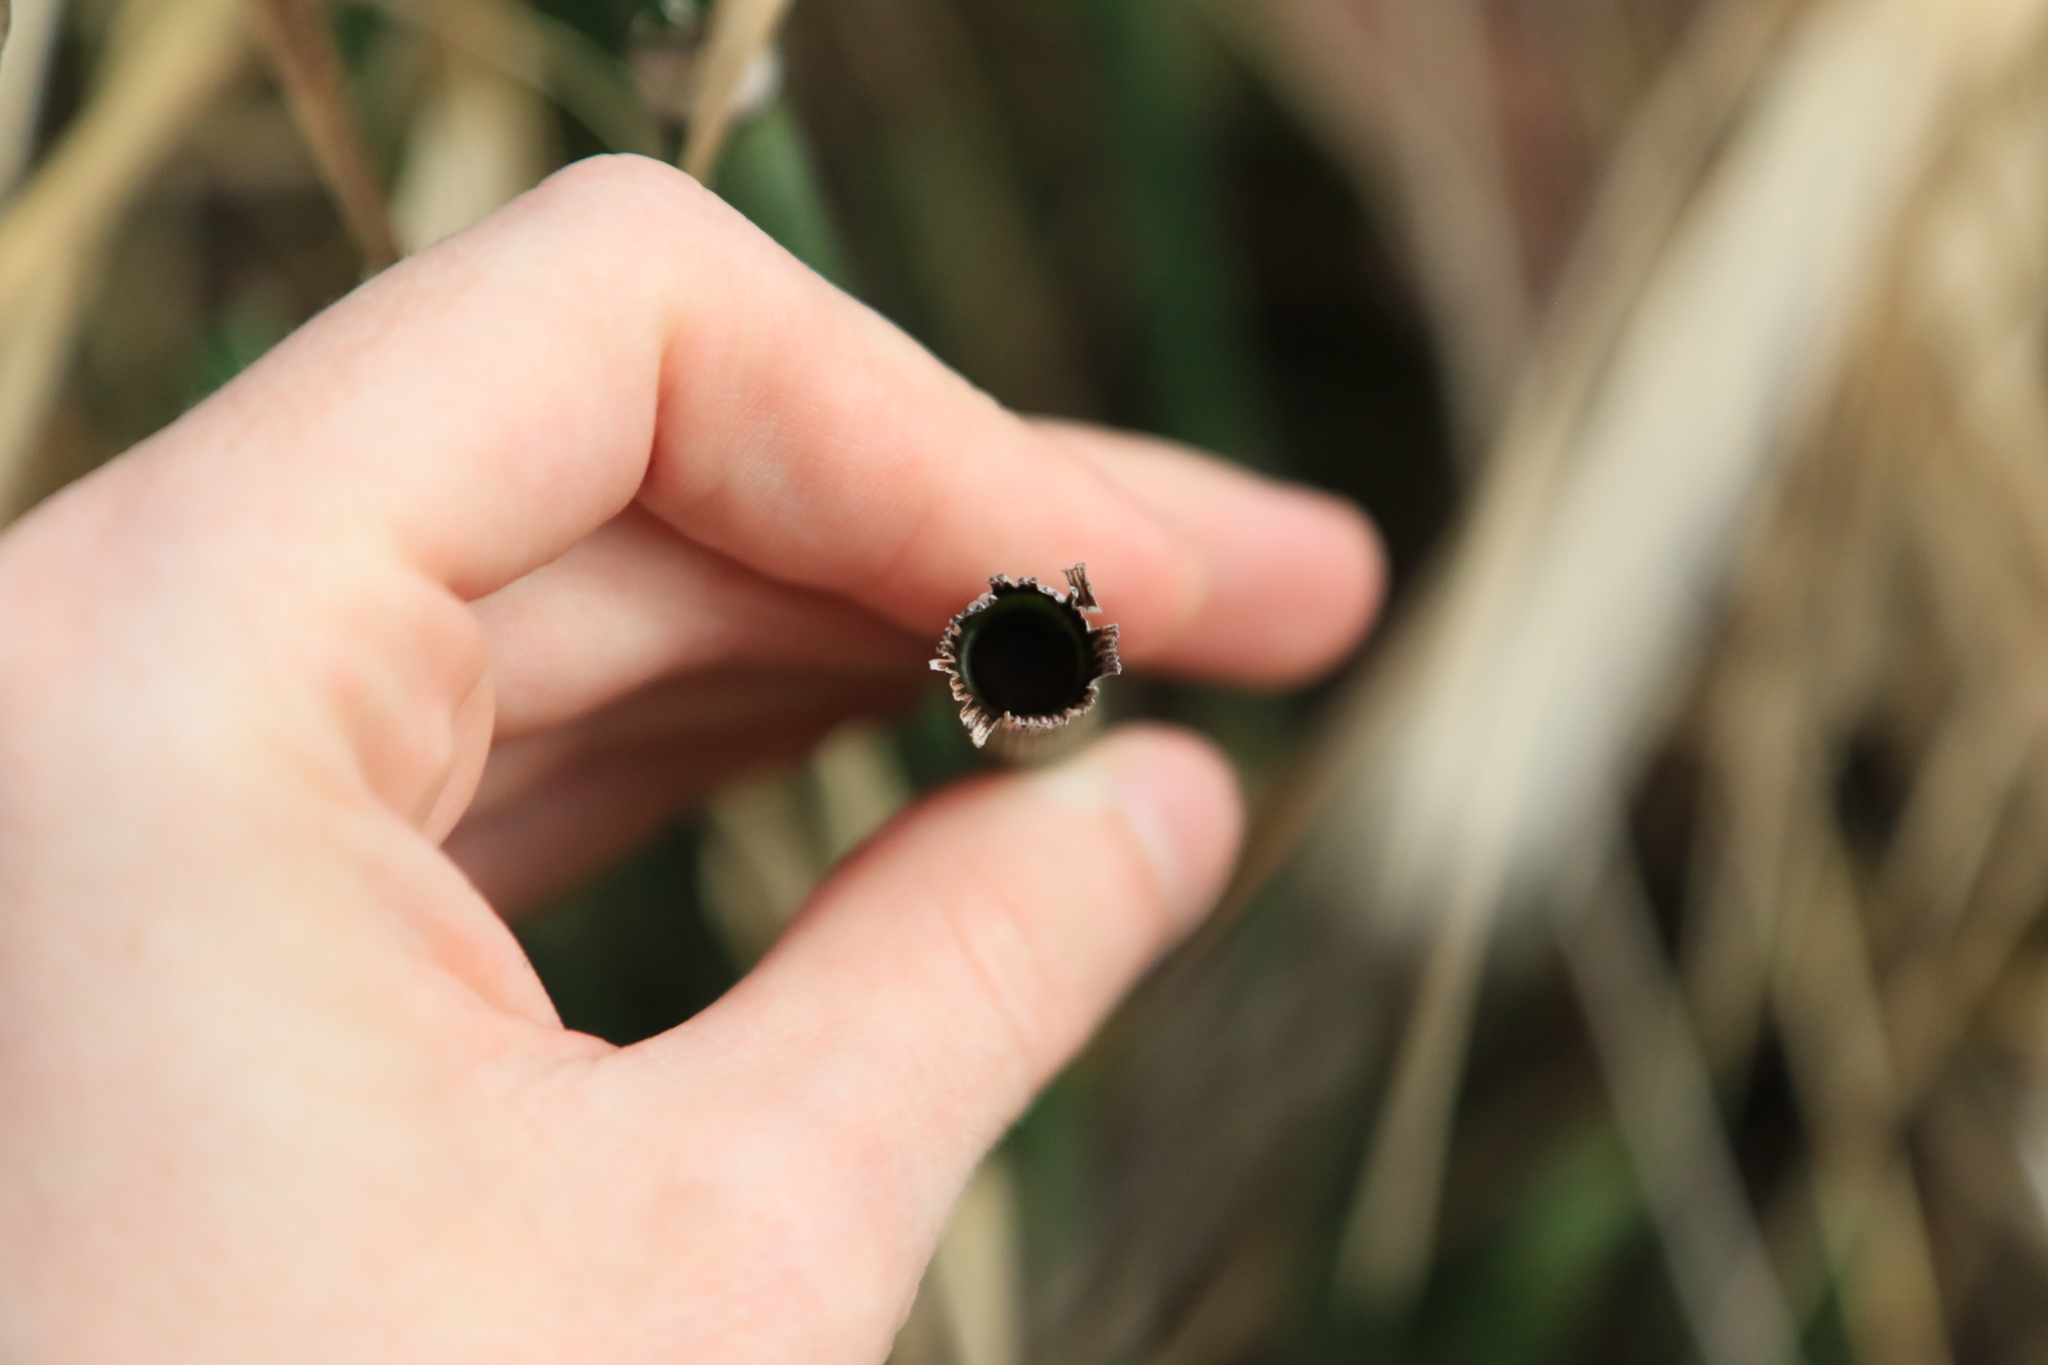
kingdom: Plantae
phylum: Tracheophyta
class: Polypodiopsida
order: Equisetales
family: Equisetaceae
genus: Equisetum
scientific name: Equisetum praealtum
